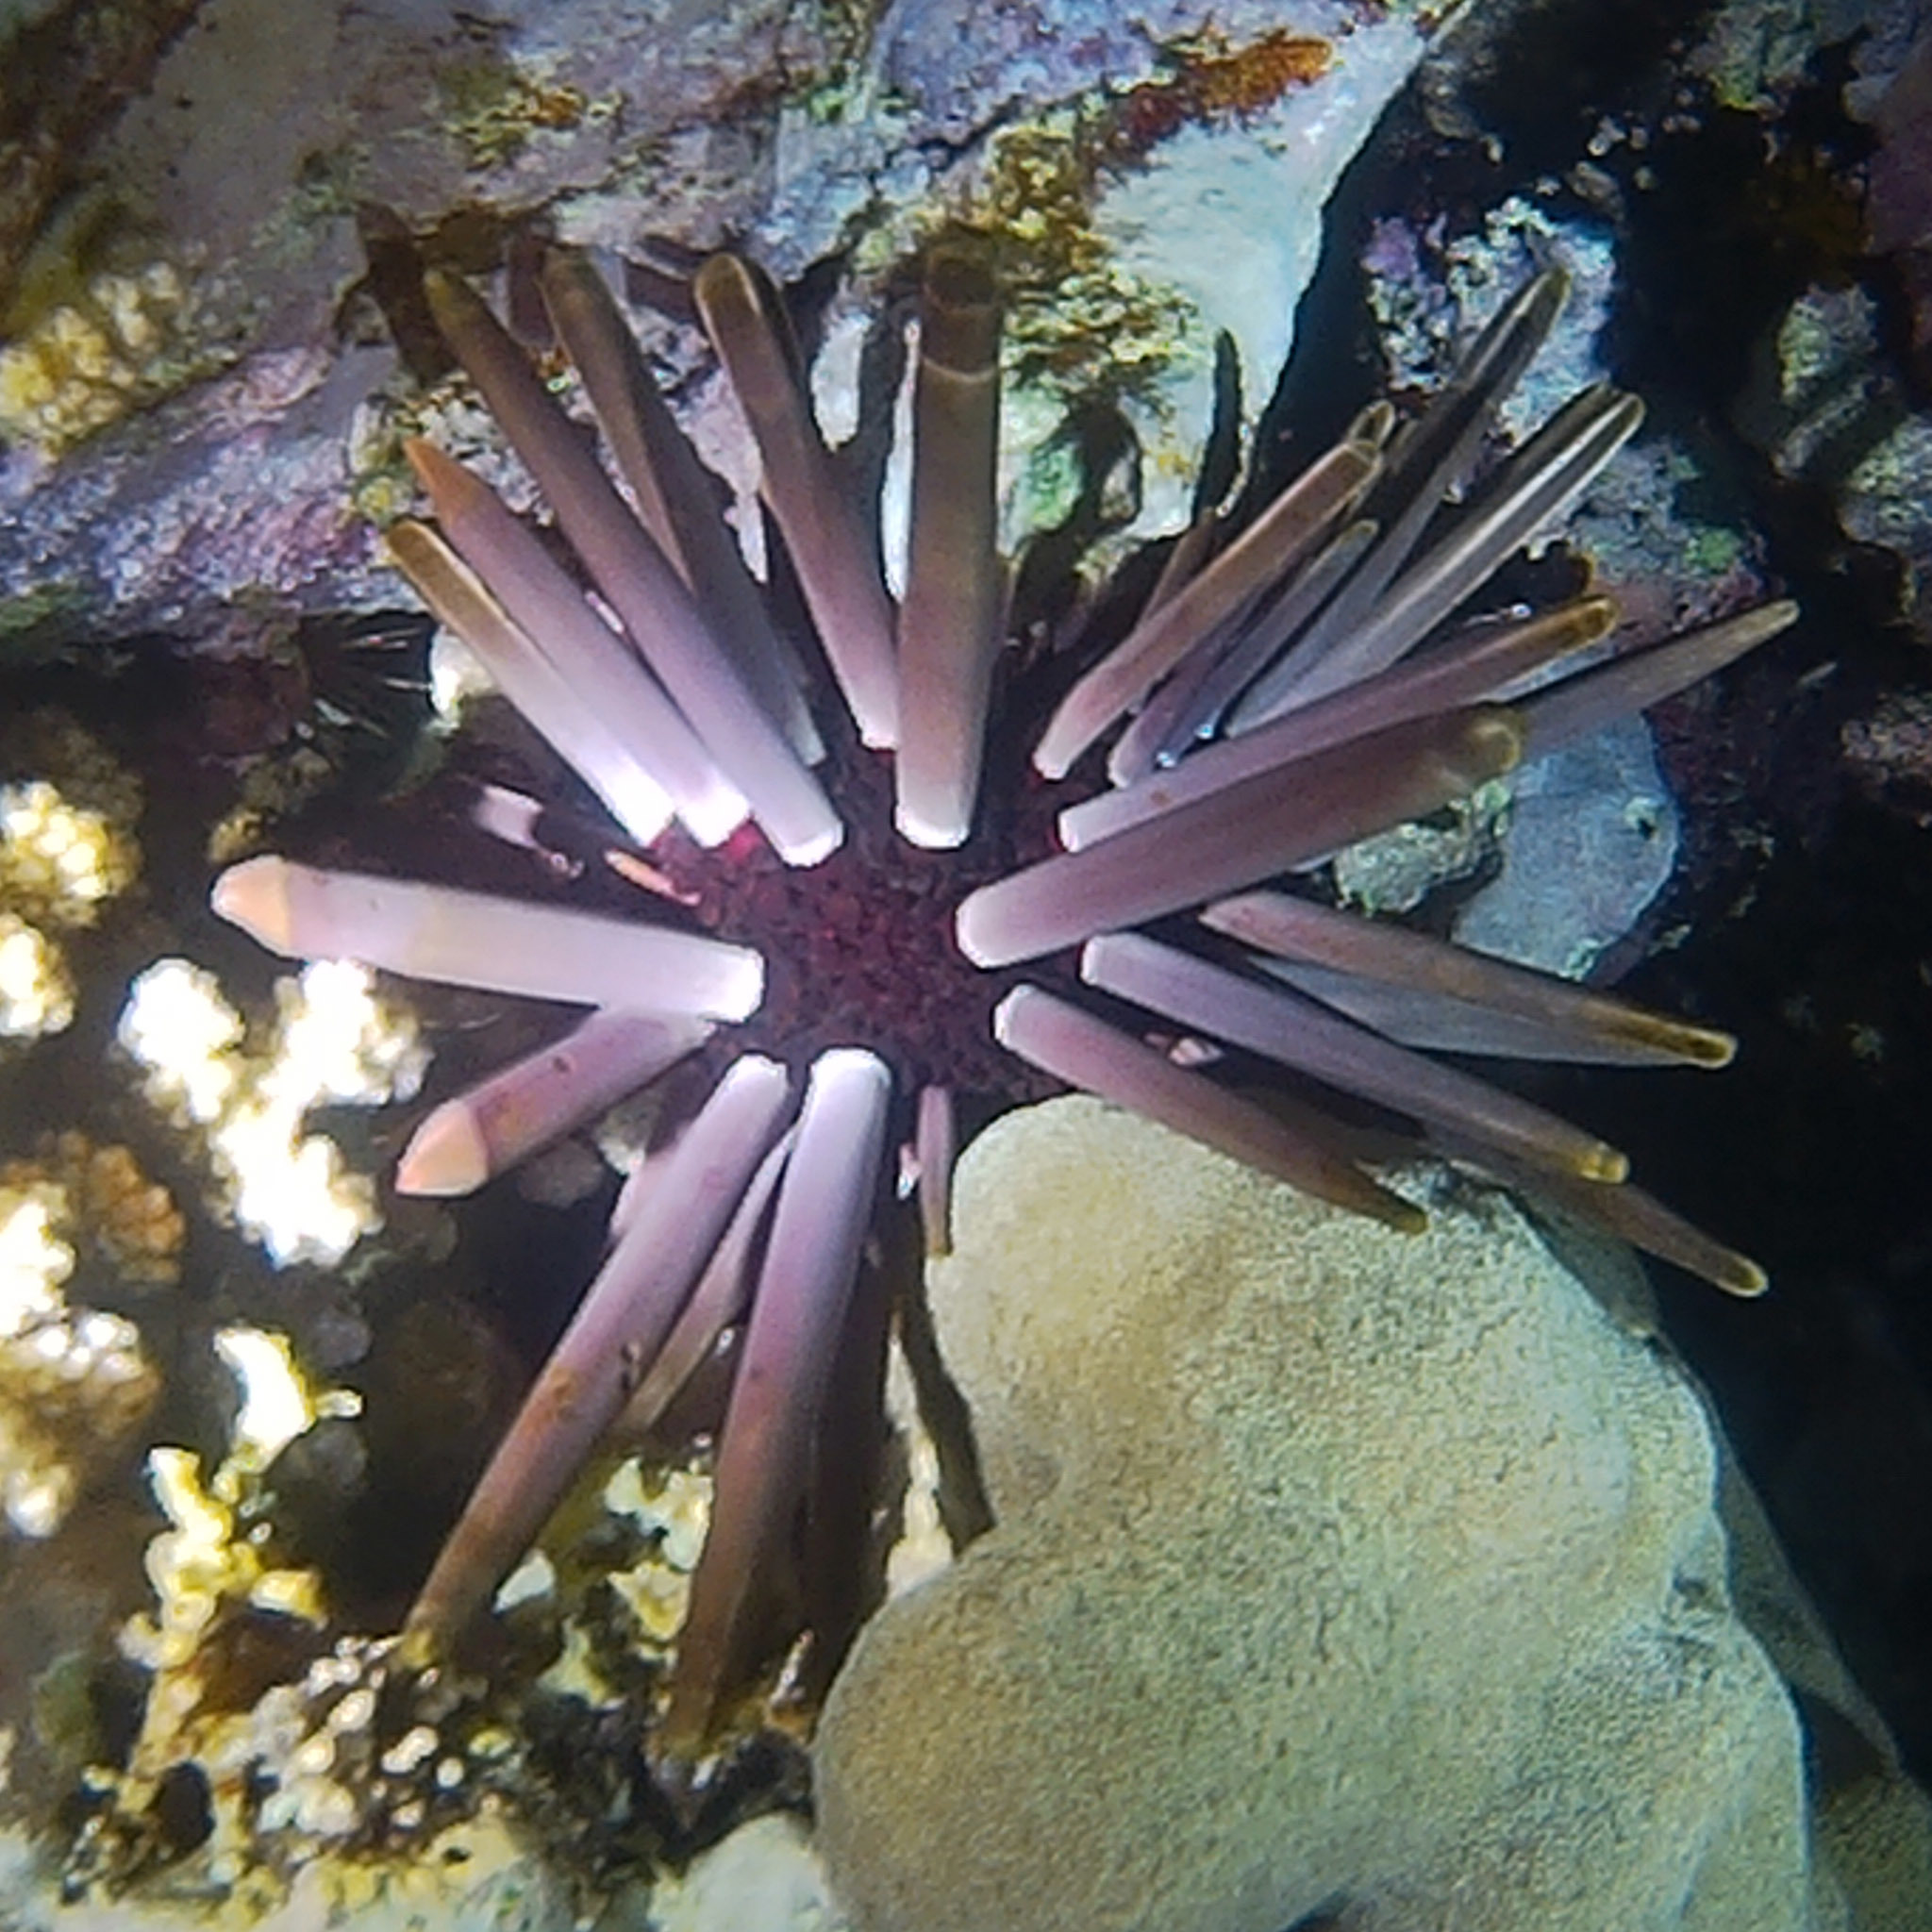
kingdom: Animalia
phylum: Echinodermata
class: Echinoidea
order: Camarodonta
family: Echinometridae
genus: Heterocentrotus
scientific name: Heterocentrotus mamillatus
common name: Slate pencil urchin
